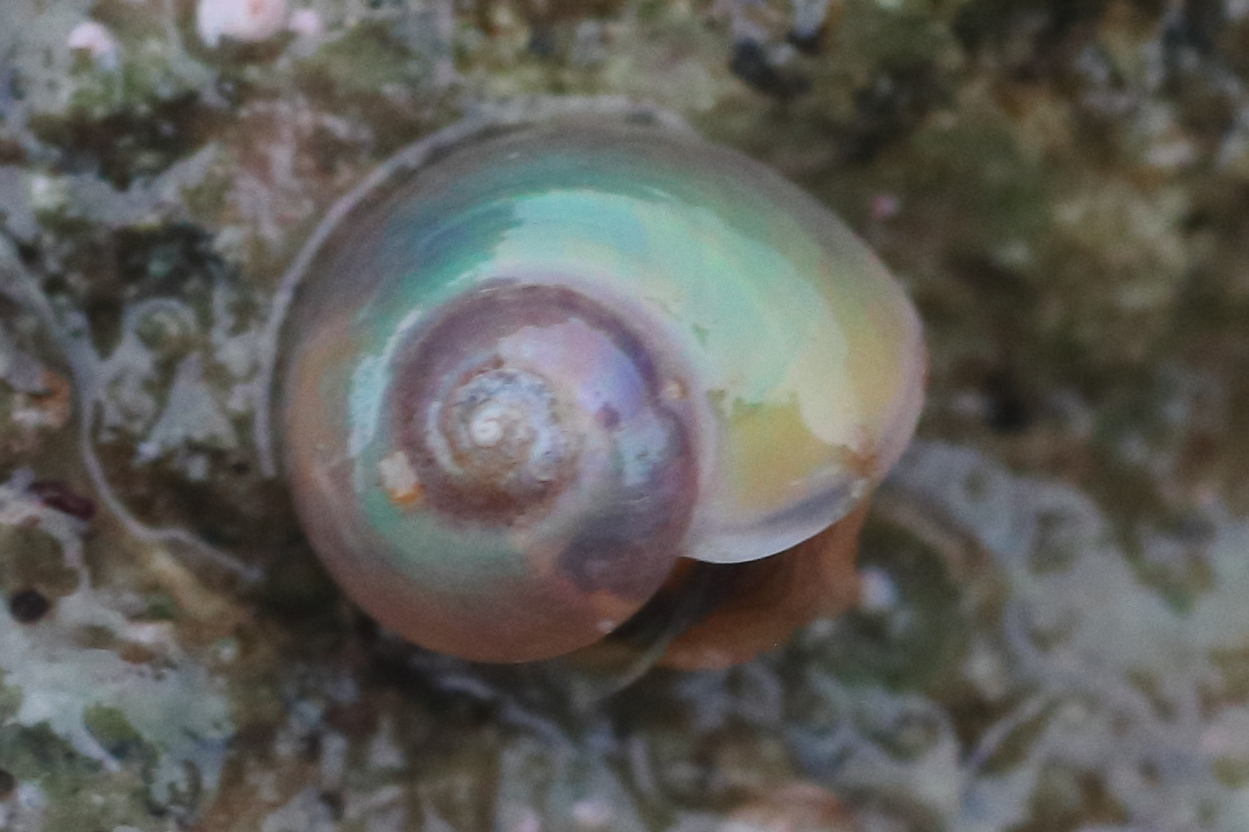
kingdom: Animalia
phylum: Mollusca
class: Gastropoda
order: Trochida
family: Margaritidae
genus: Margarites
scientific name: Margarites helicinus
